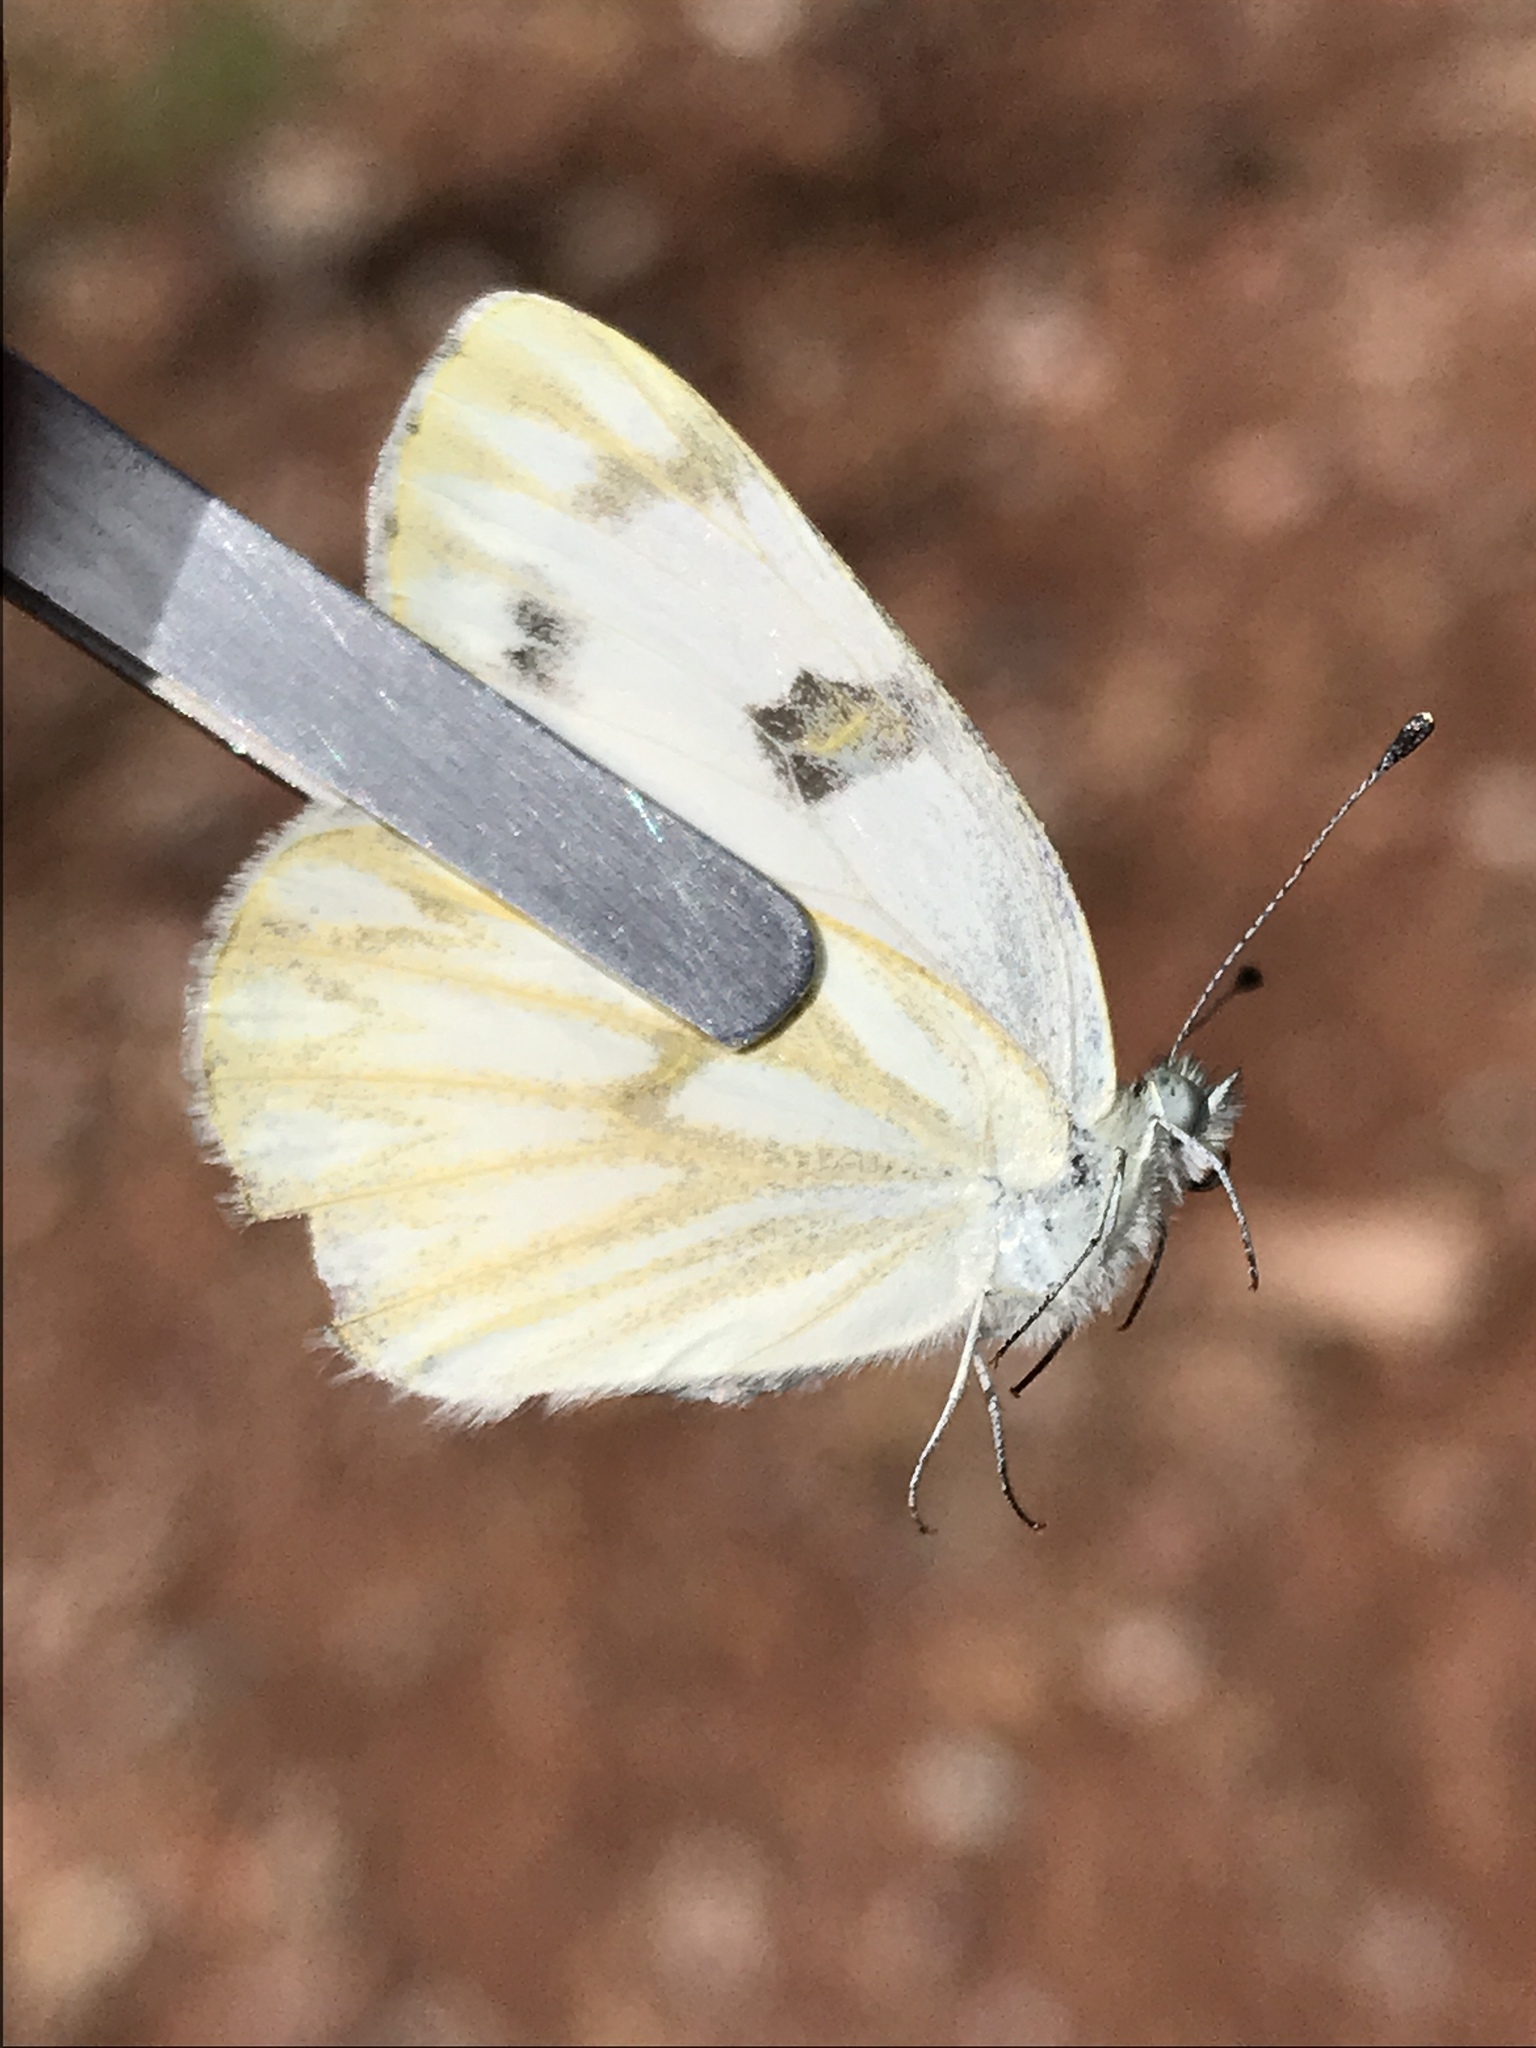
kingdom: Animalia
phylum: Arthropoda
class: Insecta
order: Lepidoptera
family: Pieridae
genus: Pontia
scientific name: Pontia protodice
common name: Checkered white
